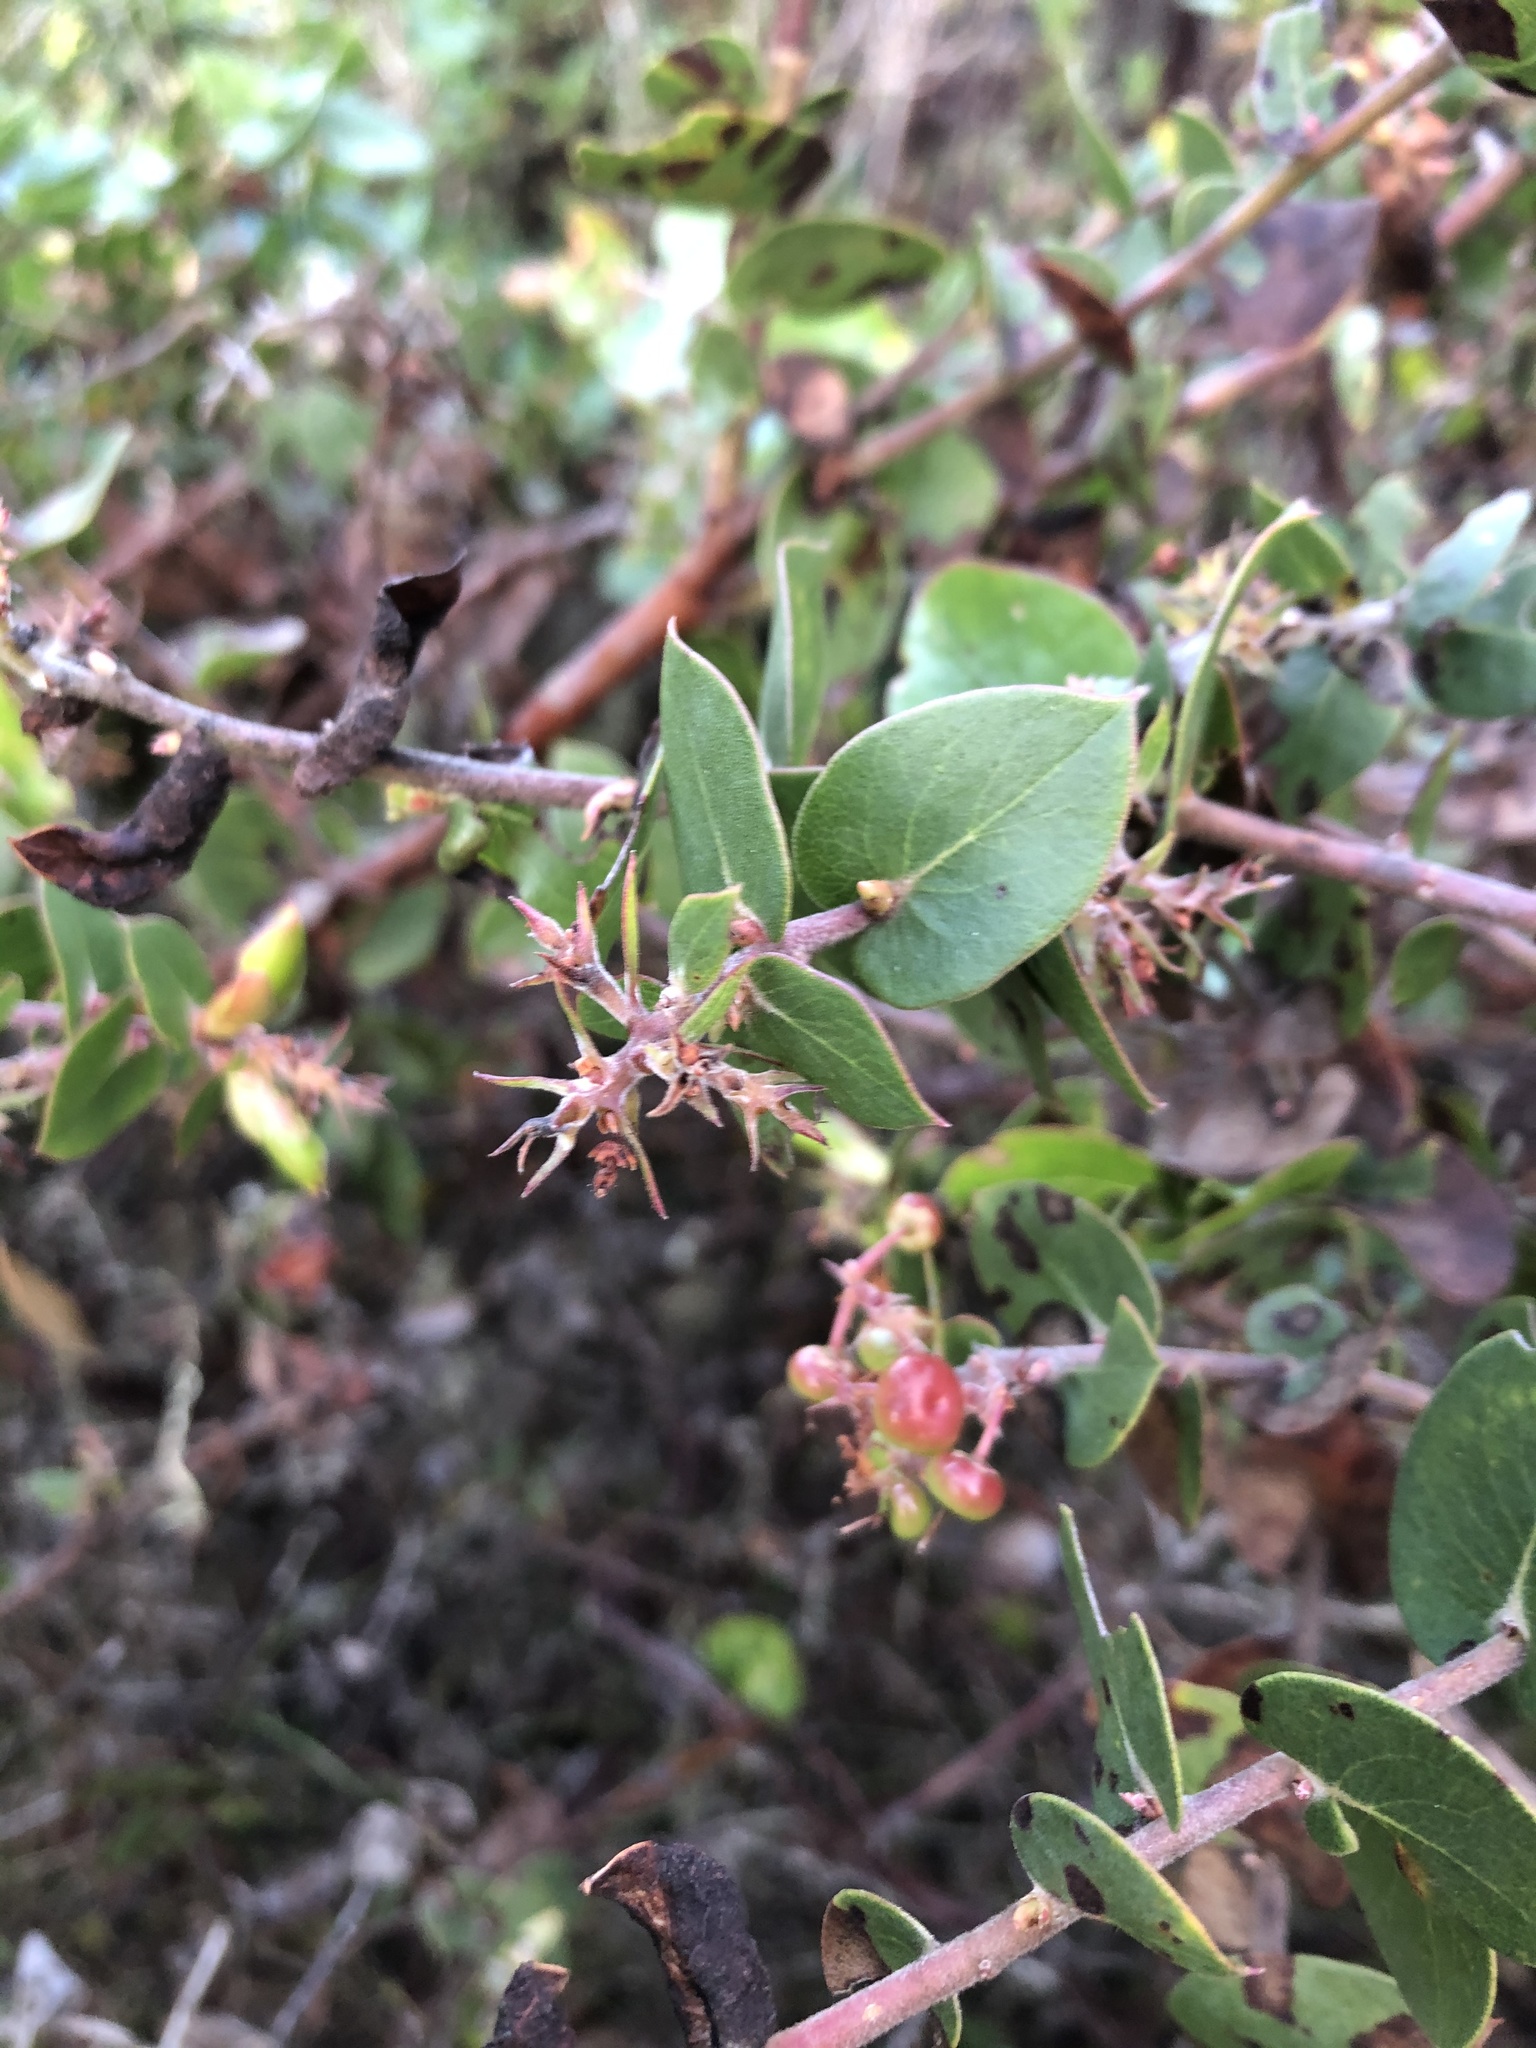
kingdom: Plantae
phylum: Tracheophyta
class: Magnoliopsida
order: Ericales
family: Ericaceae
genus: Arctostaphylos
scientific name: Arctostaphylos osoensis
